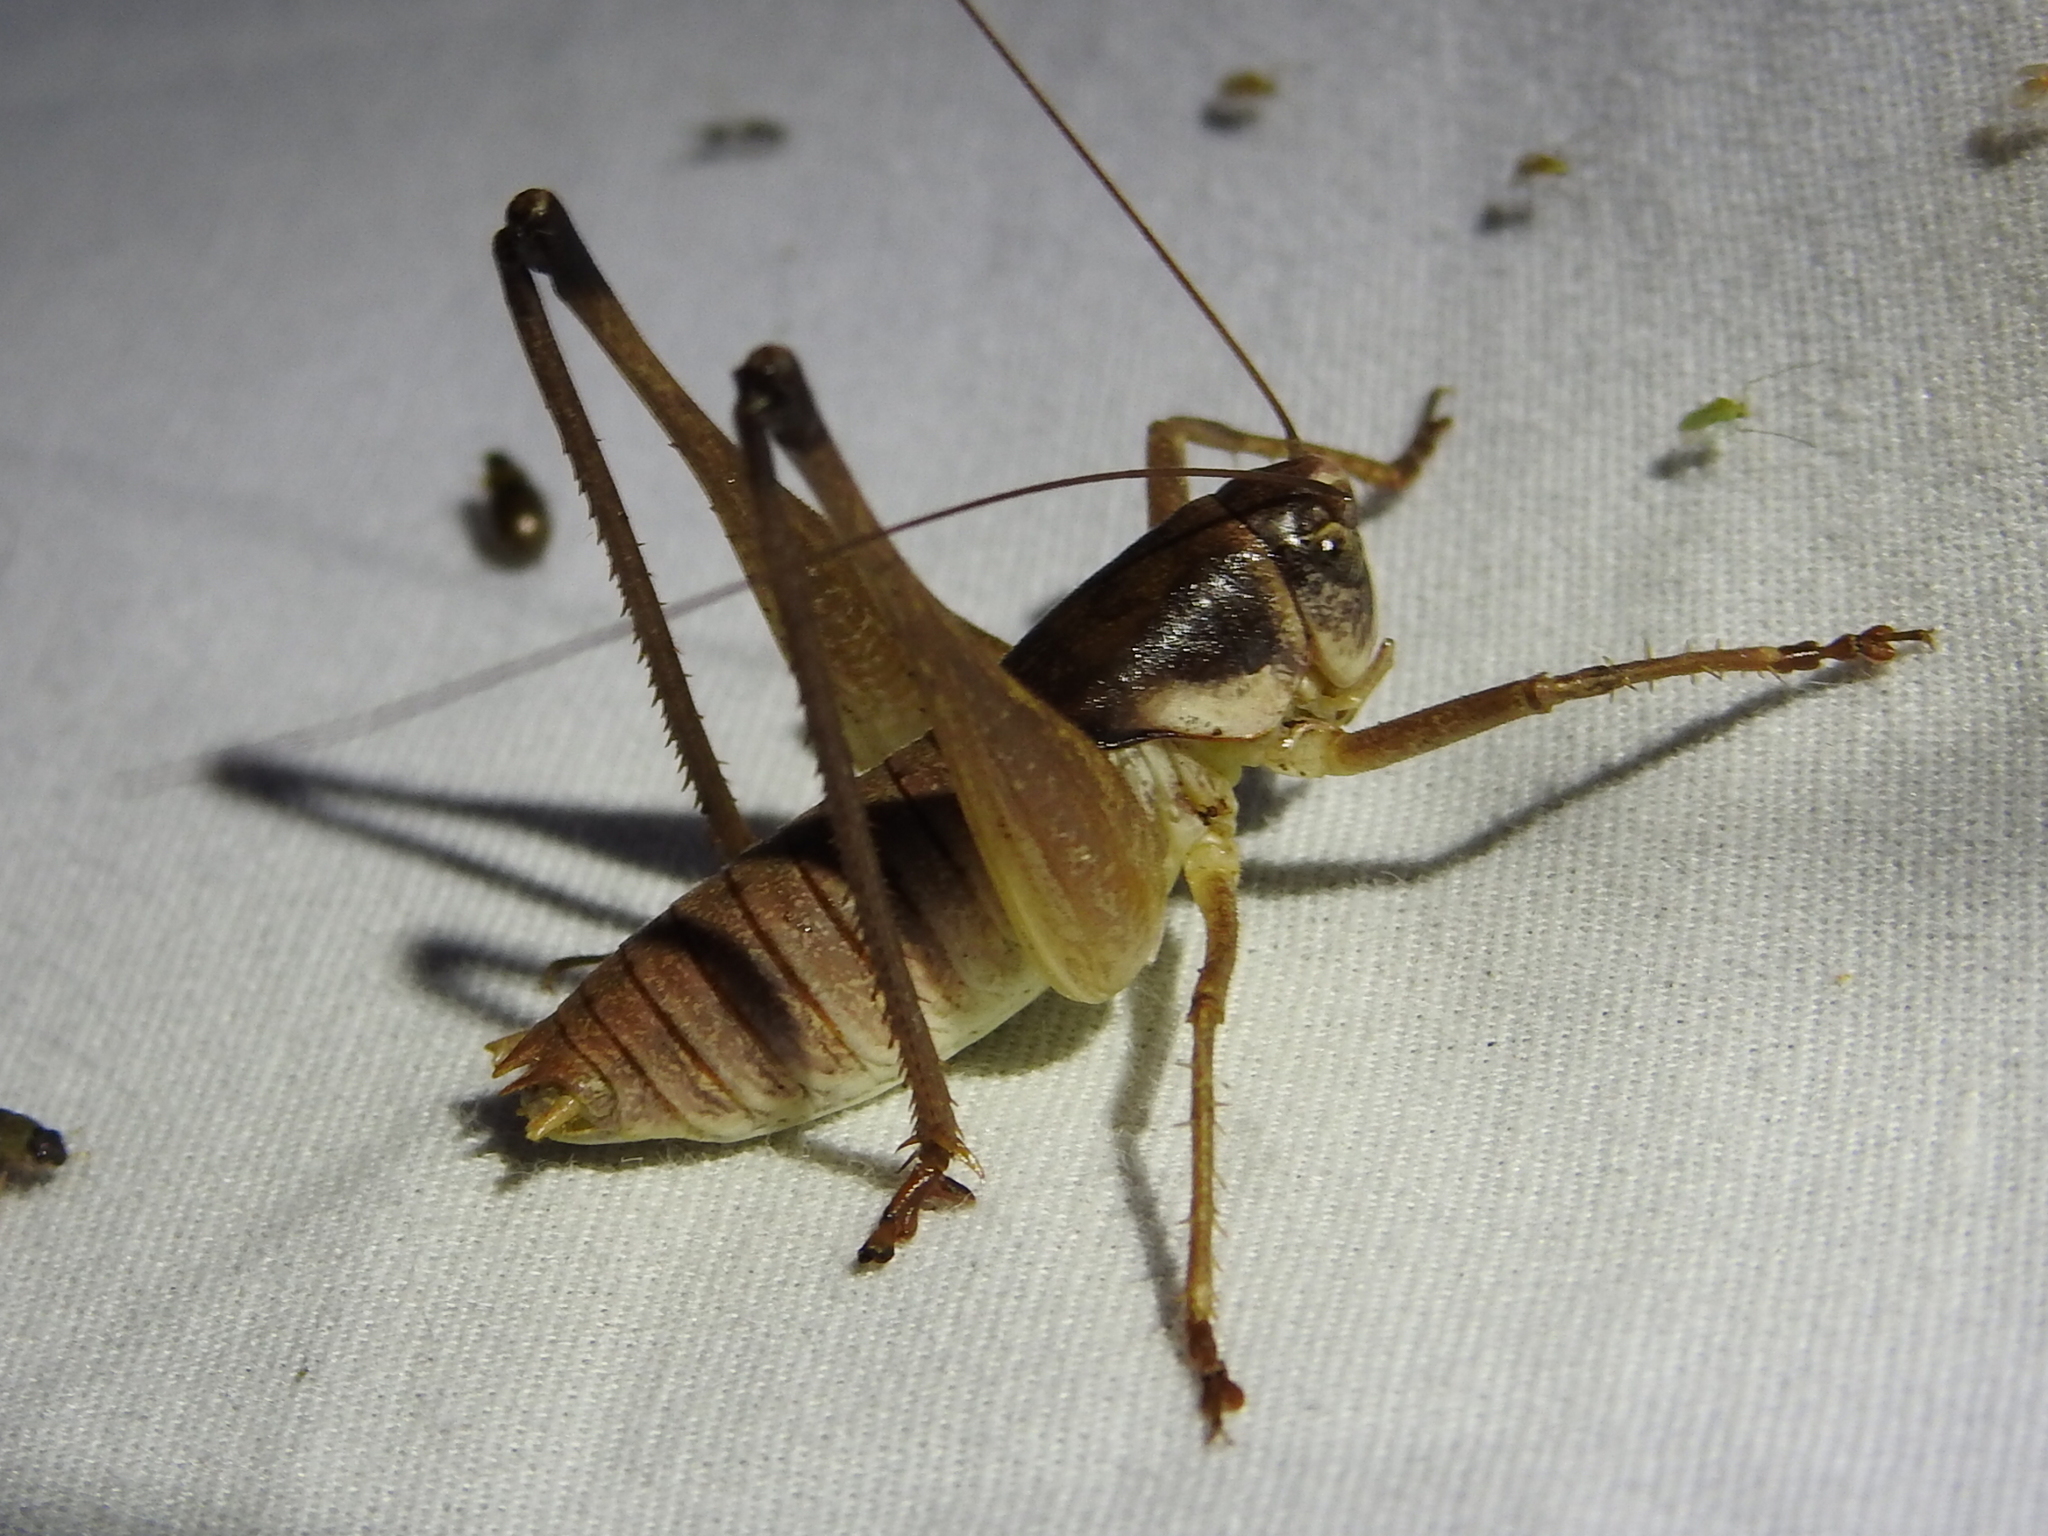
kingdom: Animalia
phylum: Arthropoda
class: Insecta
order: Orthoptera
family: Tettigoniidae
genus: Pediodectes
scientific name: Pediodectes bruneri
